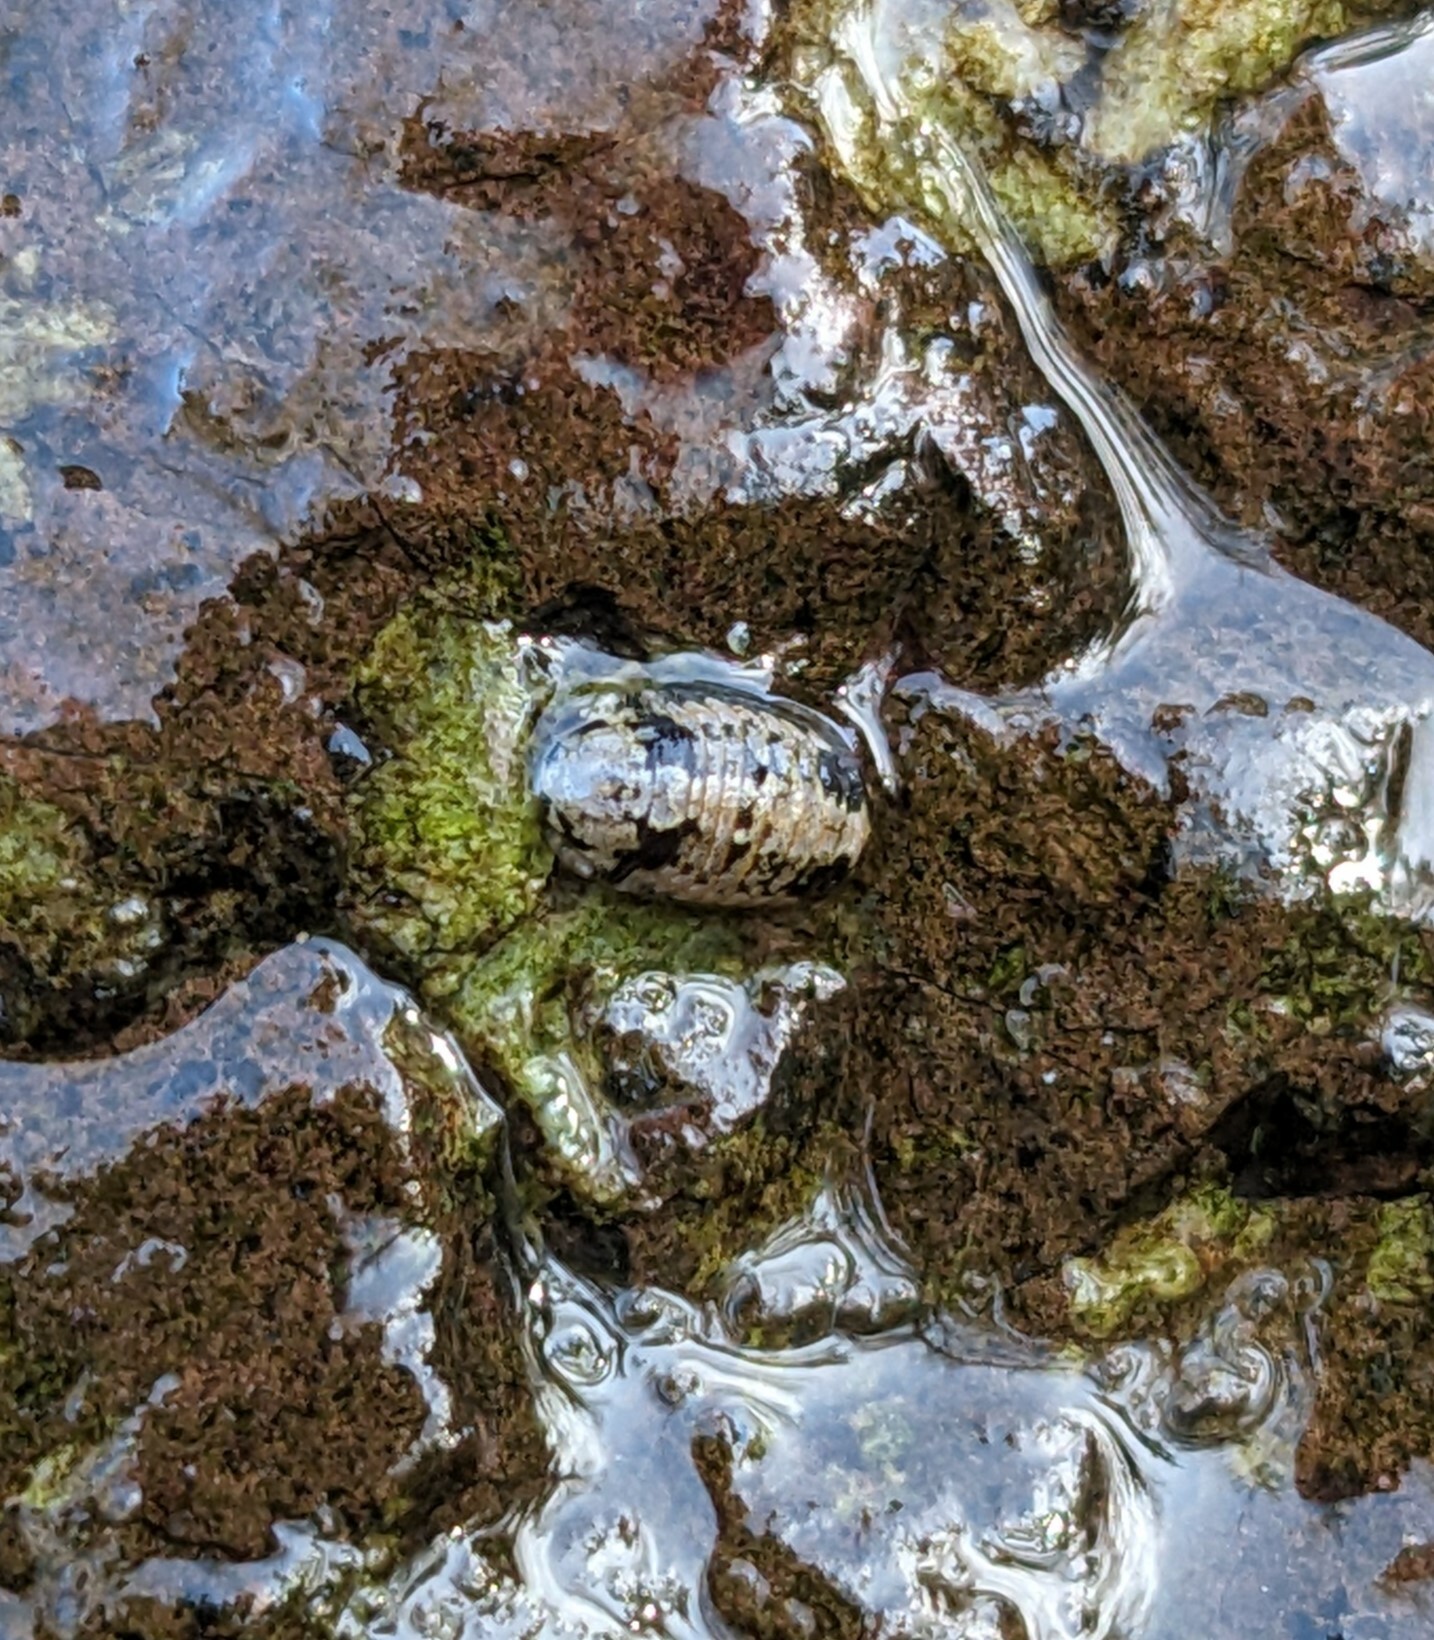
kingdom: Animalia
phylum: Arthropoda
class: Malacostraca
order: Isopoda
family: Sphaeromatidae
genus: Gnorimosphaeroma
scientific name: Gnorimosphaeroma oregonense
